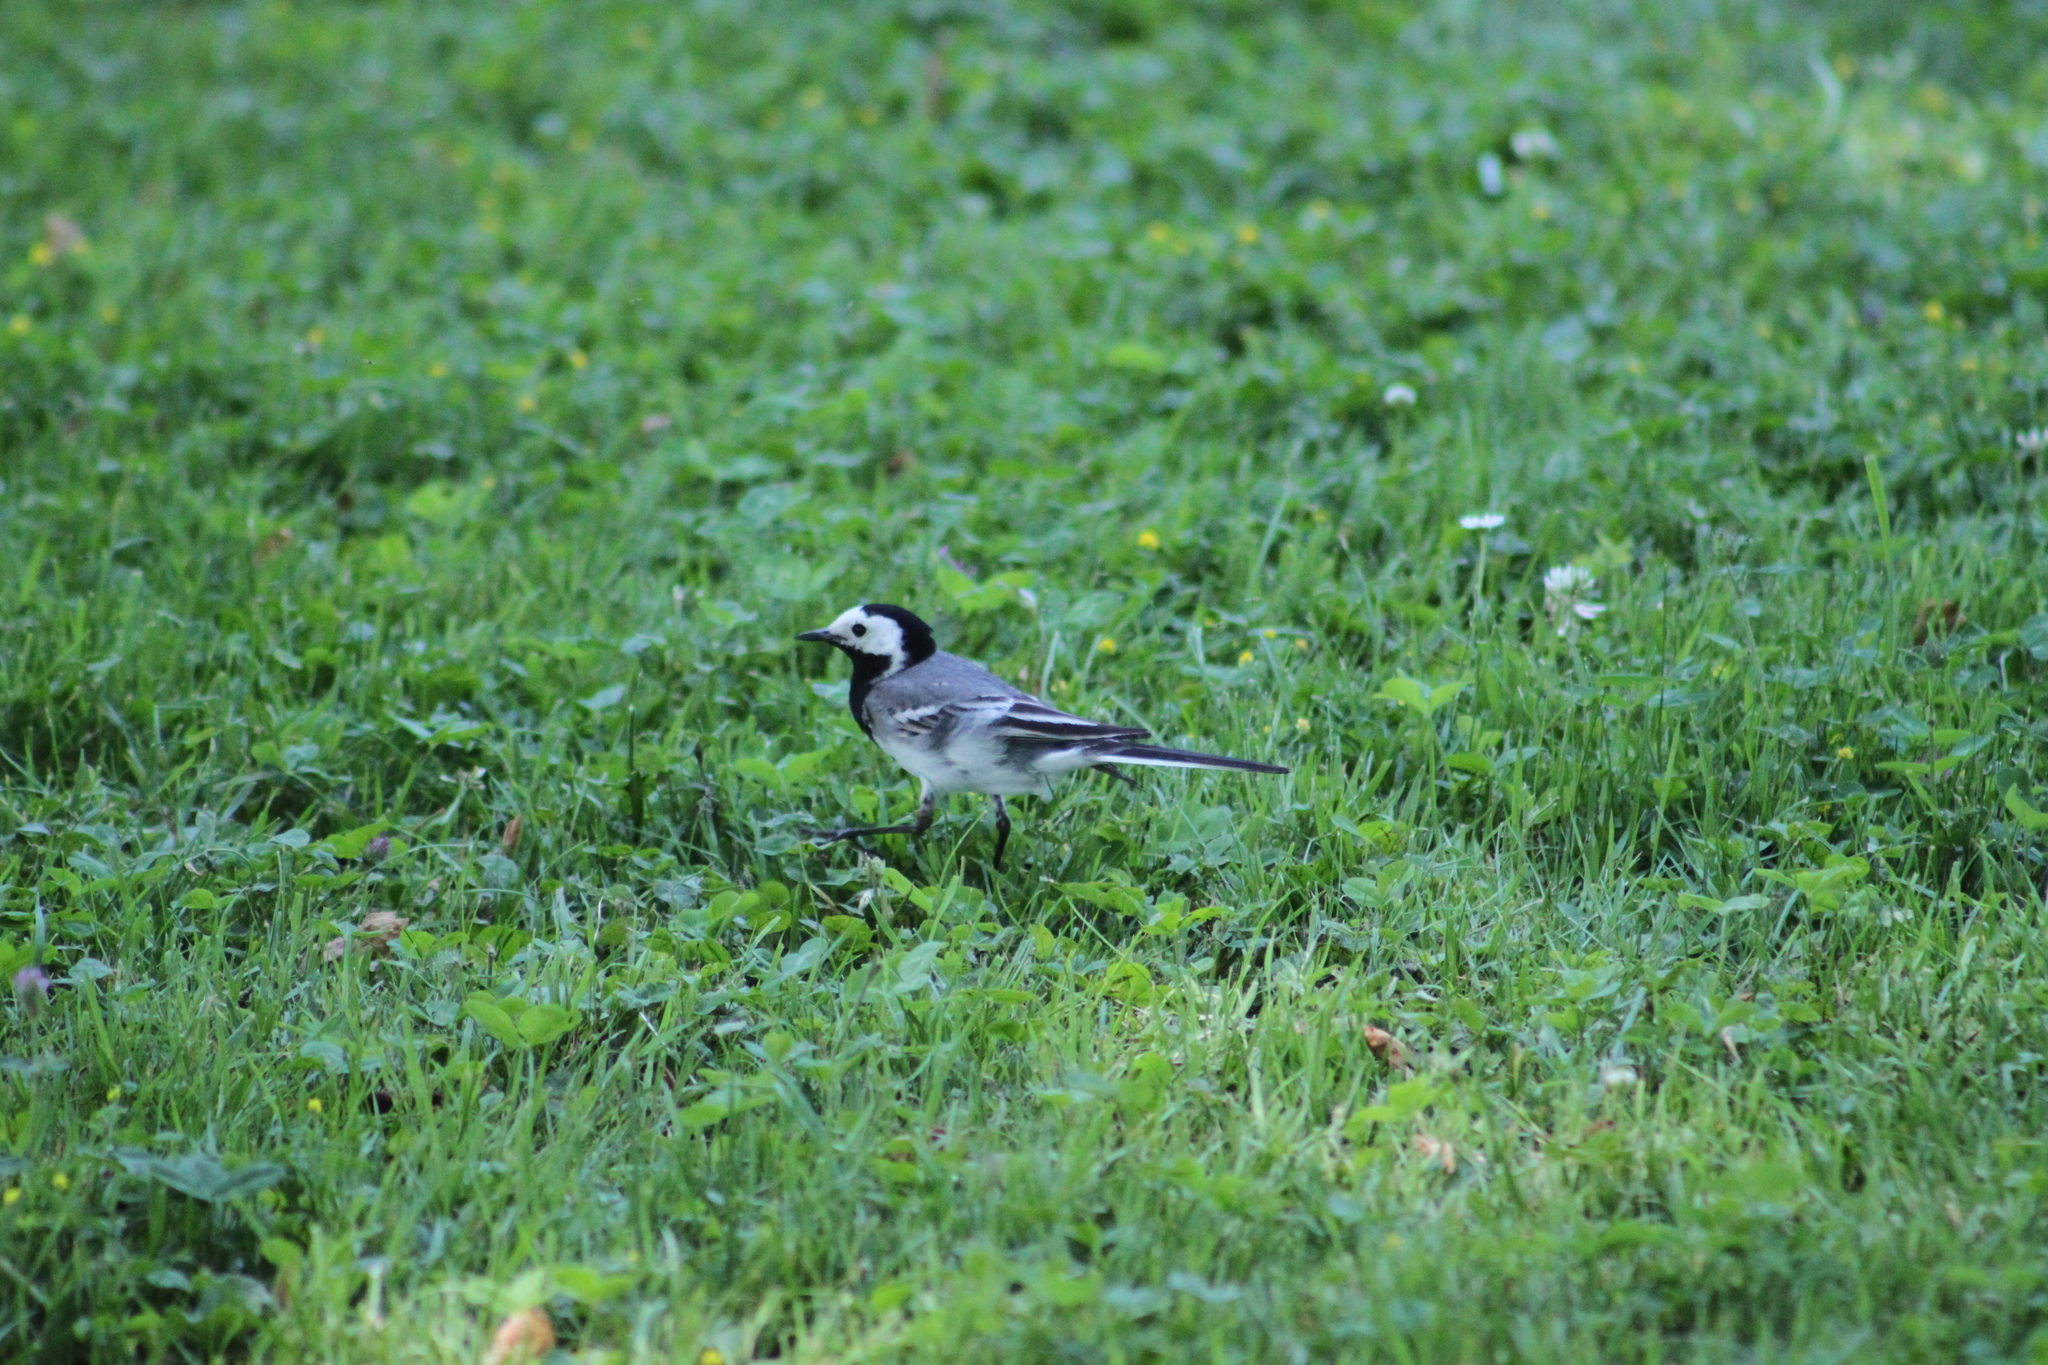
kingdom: Animalia
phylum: Chordata
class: Aves
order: Passeriformes
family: Motacillidae
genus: Motacilla
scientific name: Motacilla alba
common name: White wagtail
